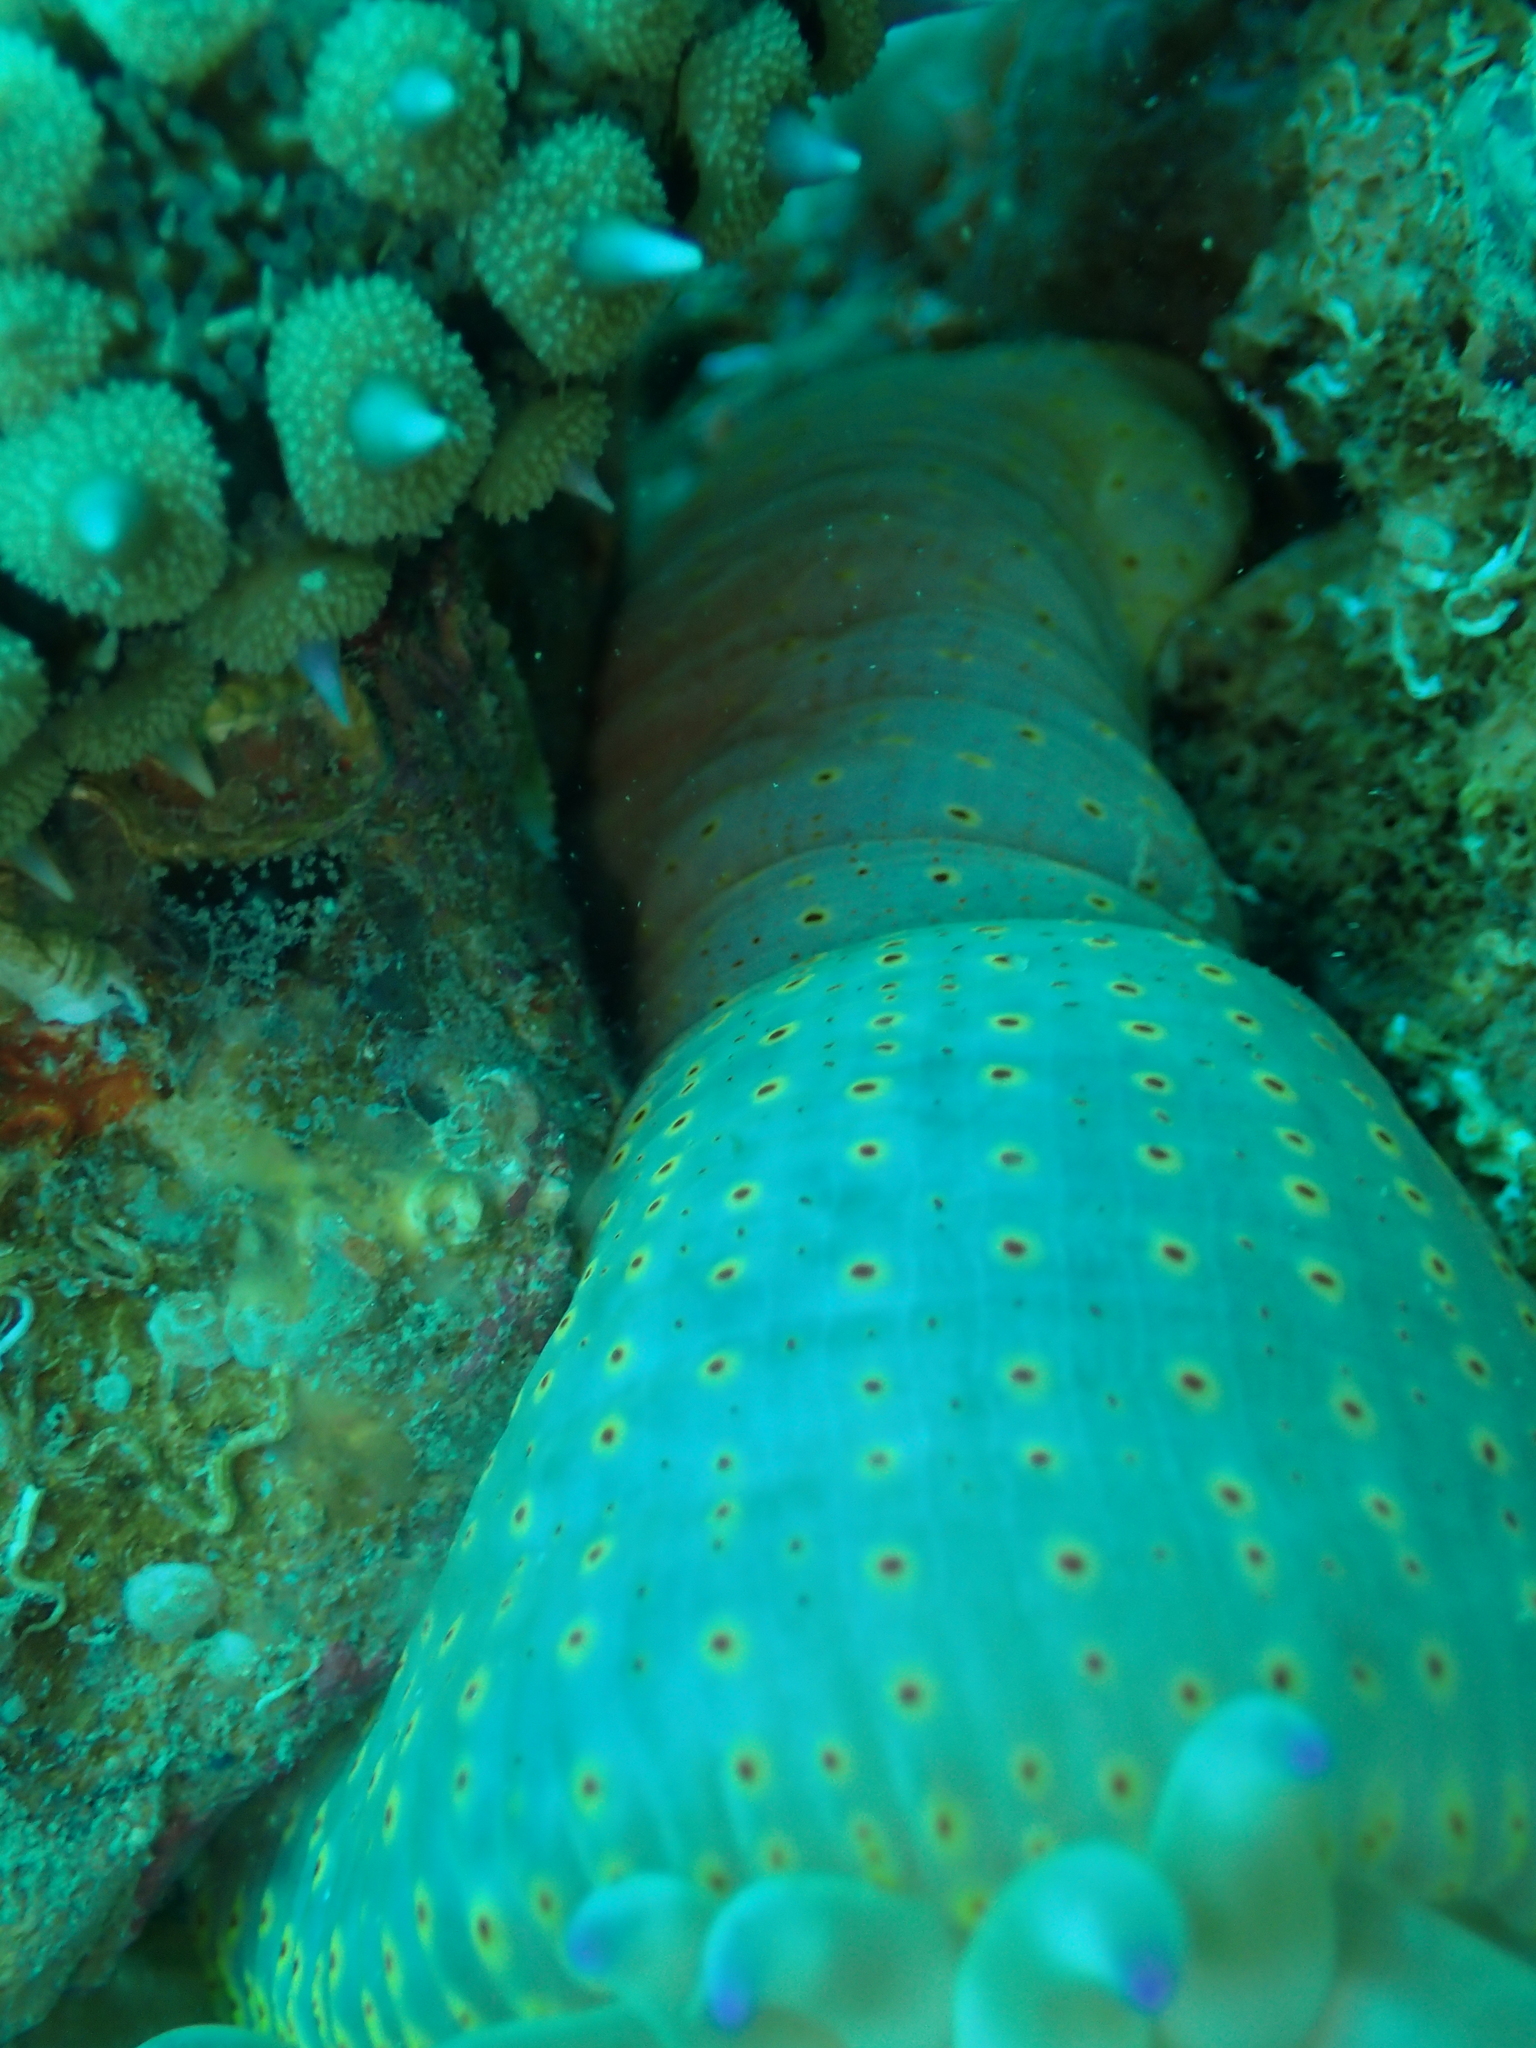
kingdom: Animalia
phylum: Cnidaria
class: Anthozoa
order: Actiniaria
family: Actiniidae
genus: Cribrinopsis
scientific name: Cribrinopsis crassa
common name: Fat anemone
